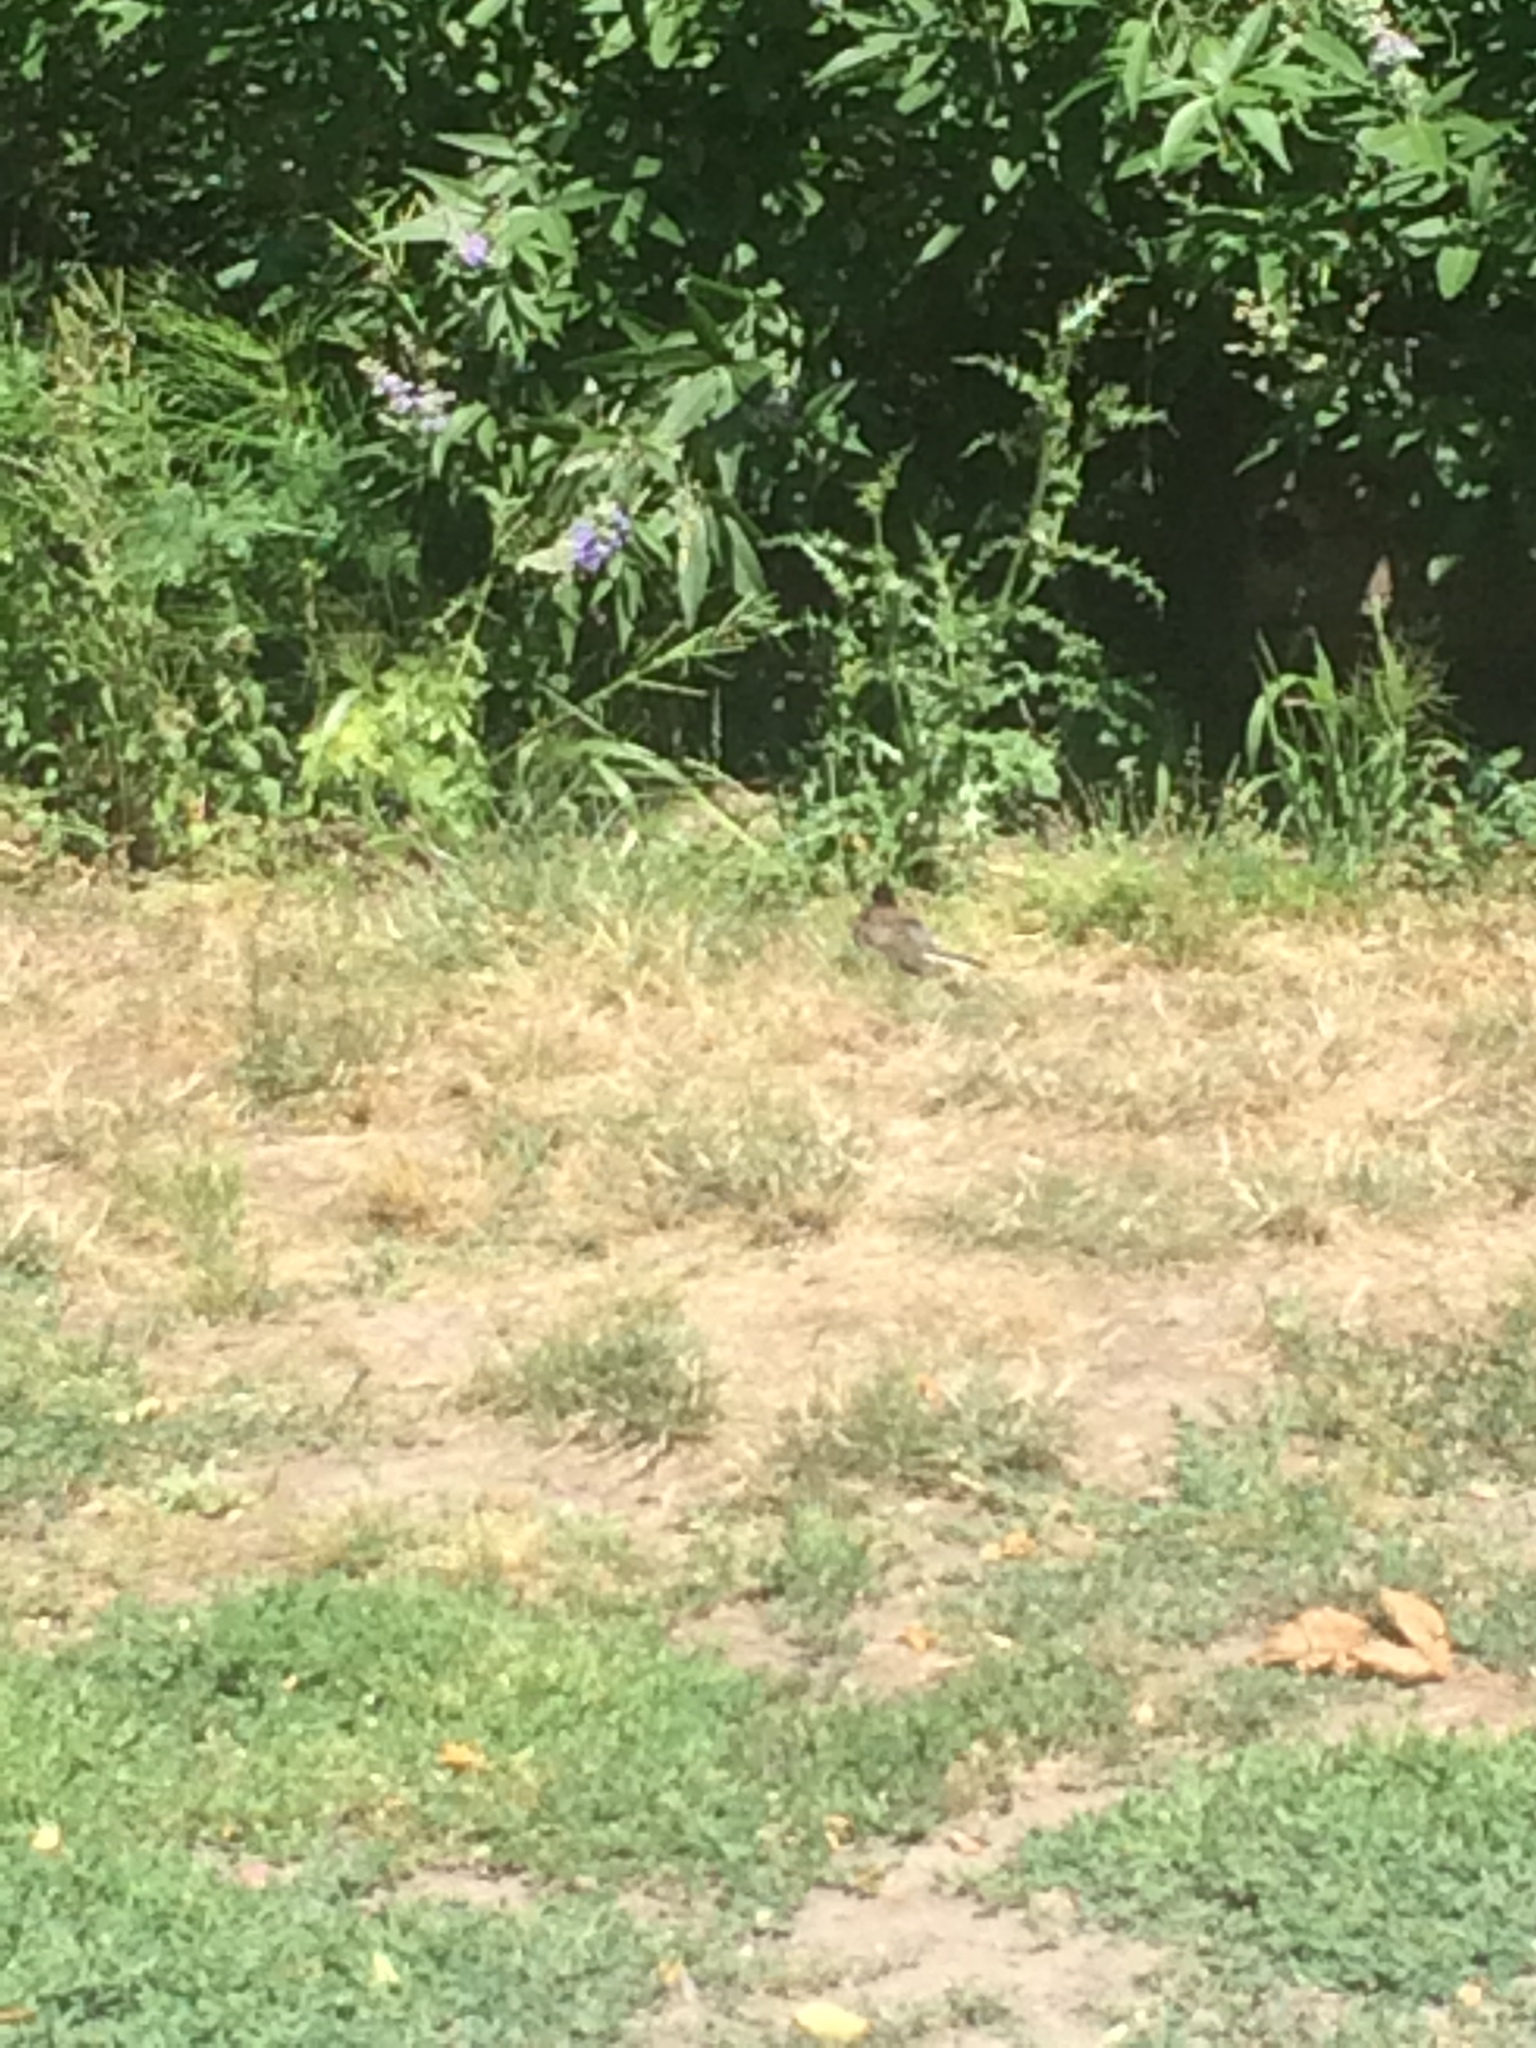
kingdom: Animalia
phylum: Chordata
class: Aves
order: Passeriformes
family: Passerellidae
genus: Junco
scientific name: Junco hyemalis
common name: Dark-eyed junco
